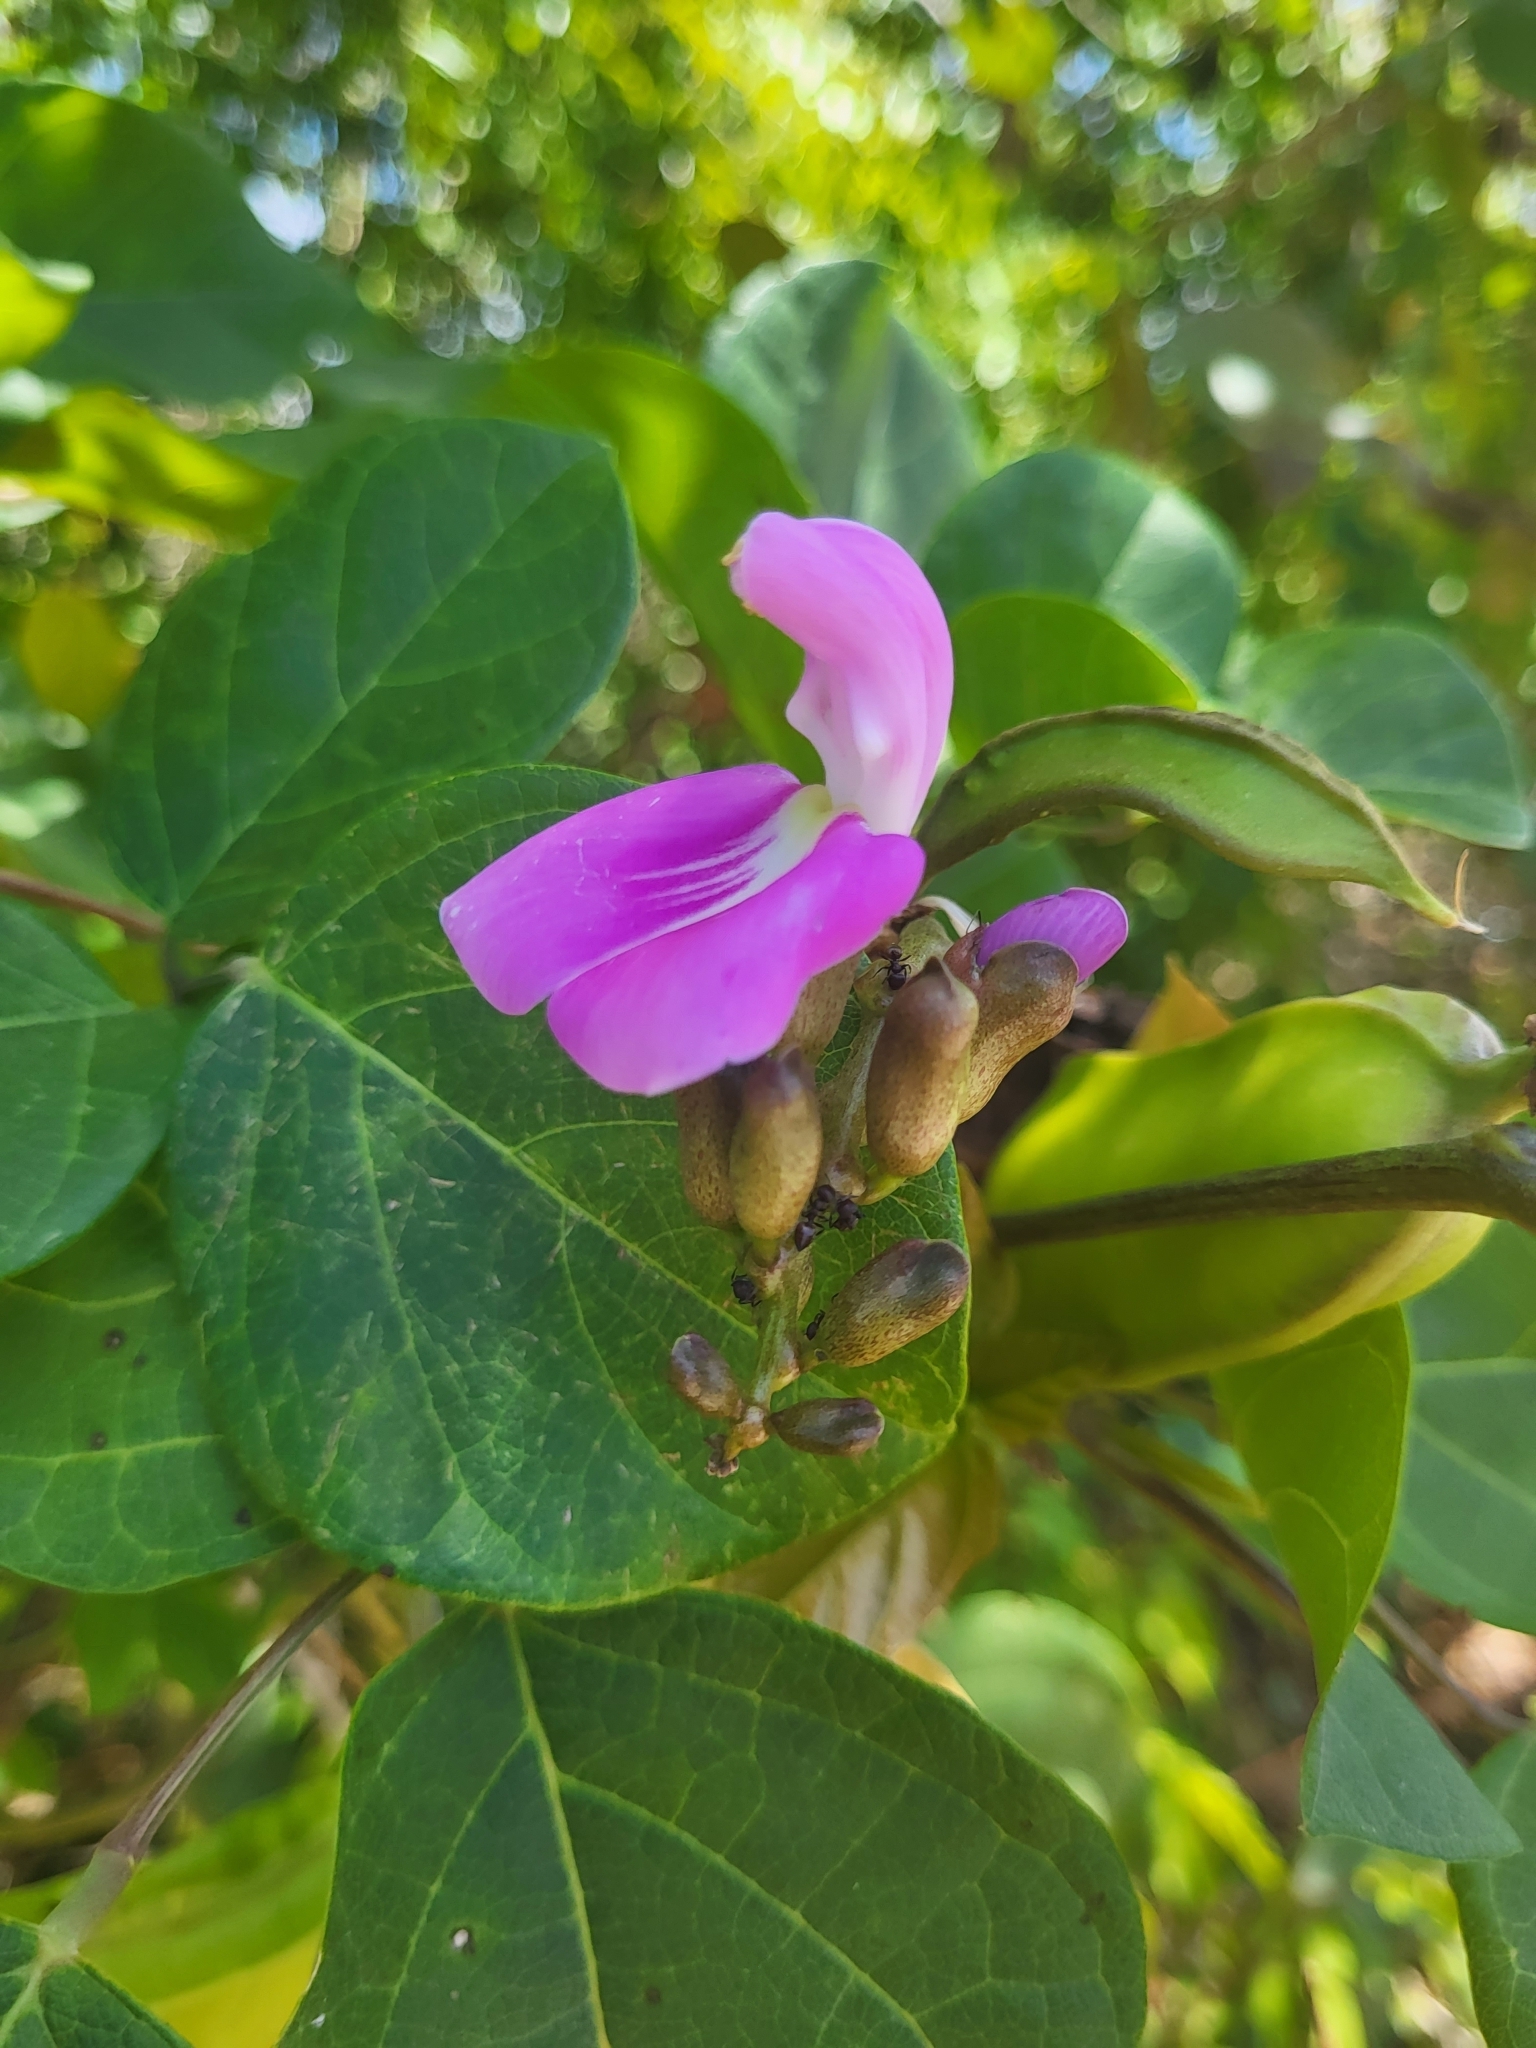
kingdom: Plantae
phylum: Tracheophyta
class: Magnoliopsida
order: Fabales
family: Fabaceae
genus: Canavalia
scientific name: Canavalia rosea
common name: Beach-bean
